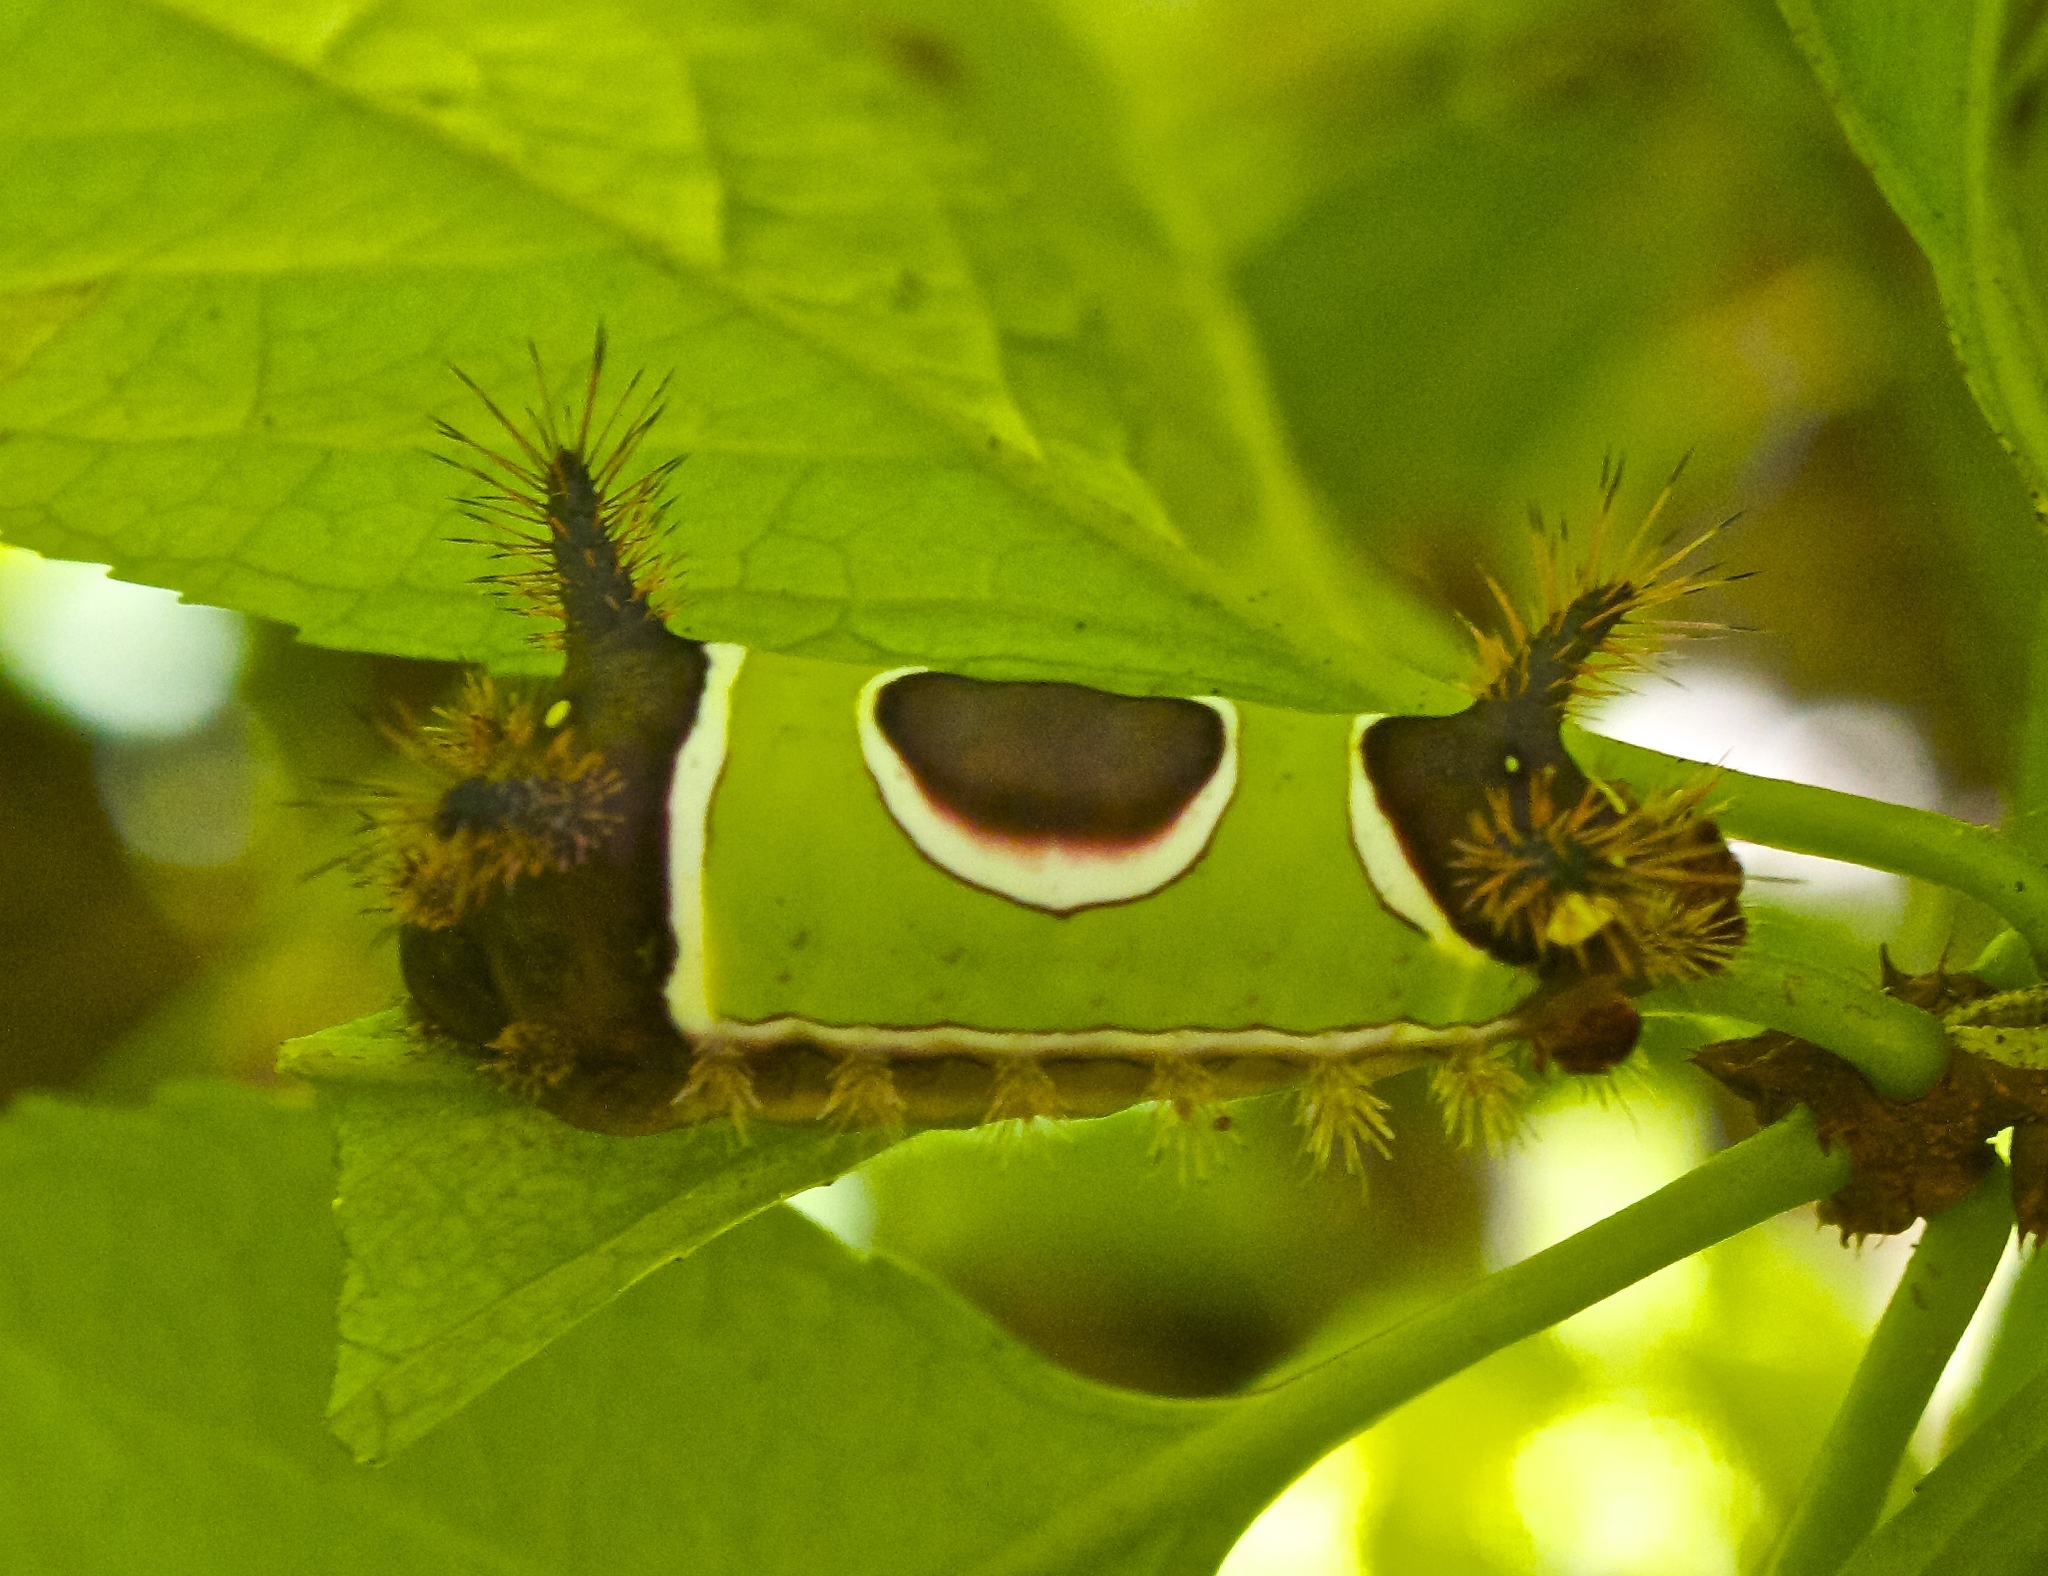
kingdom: Animalia
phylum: Arthropoda
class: Insecta
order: Lepidoptera
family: Limacodidae
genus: Acharia
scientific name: Acharia stimulea
